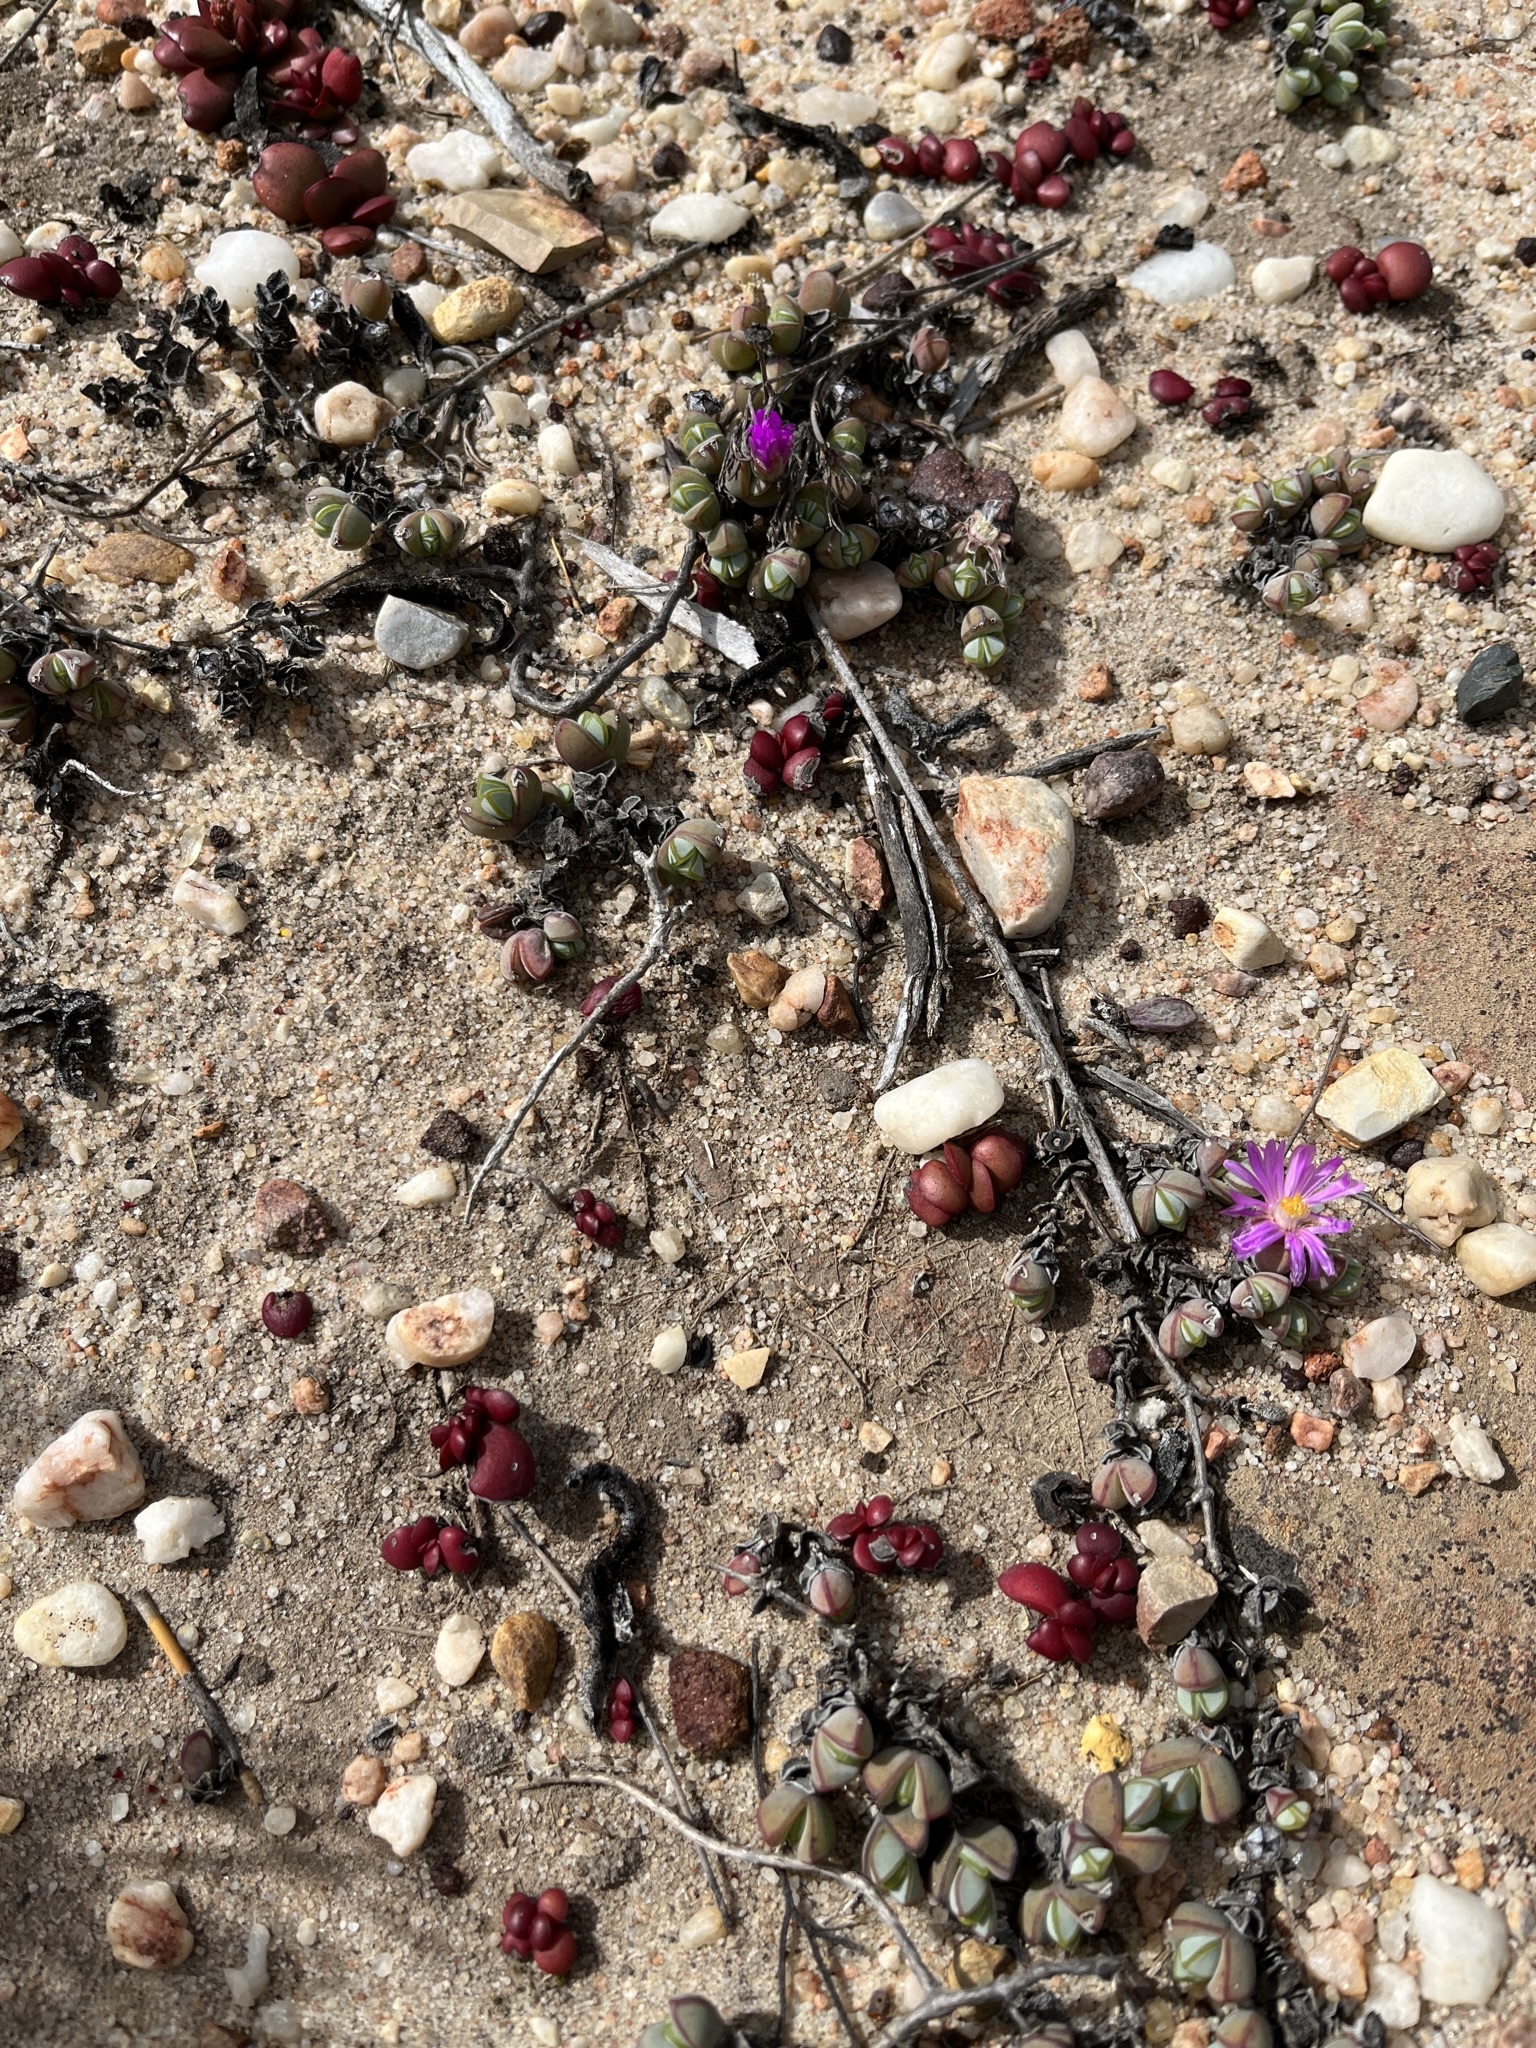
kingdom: Plantae
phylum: Tracheophyta
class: Magnoliopsida
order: Caryophyllales
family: Aizoaceae
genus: Braunsia
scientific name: Braunsia maximiliani
